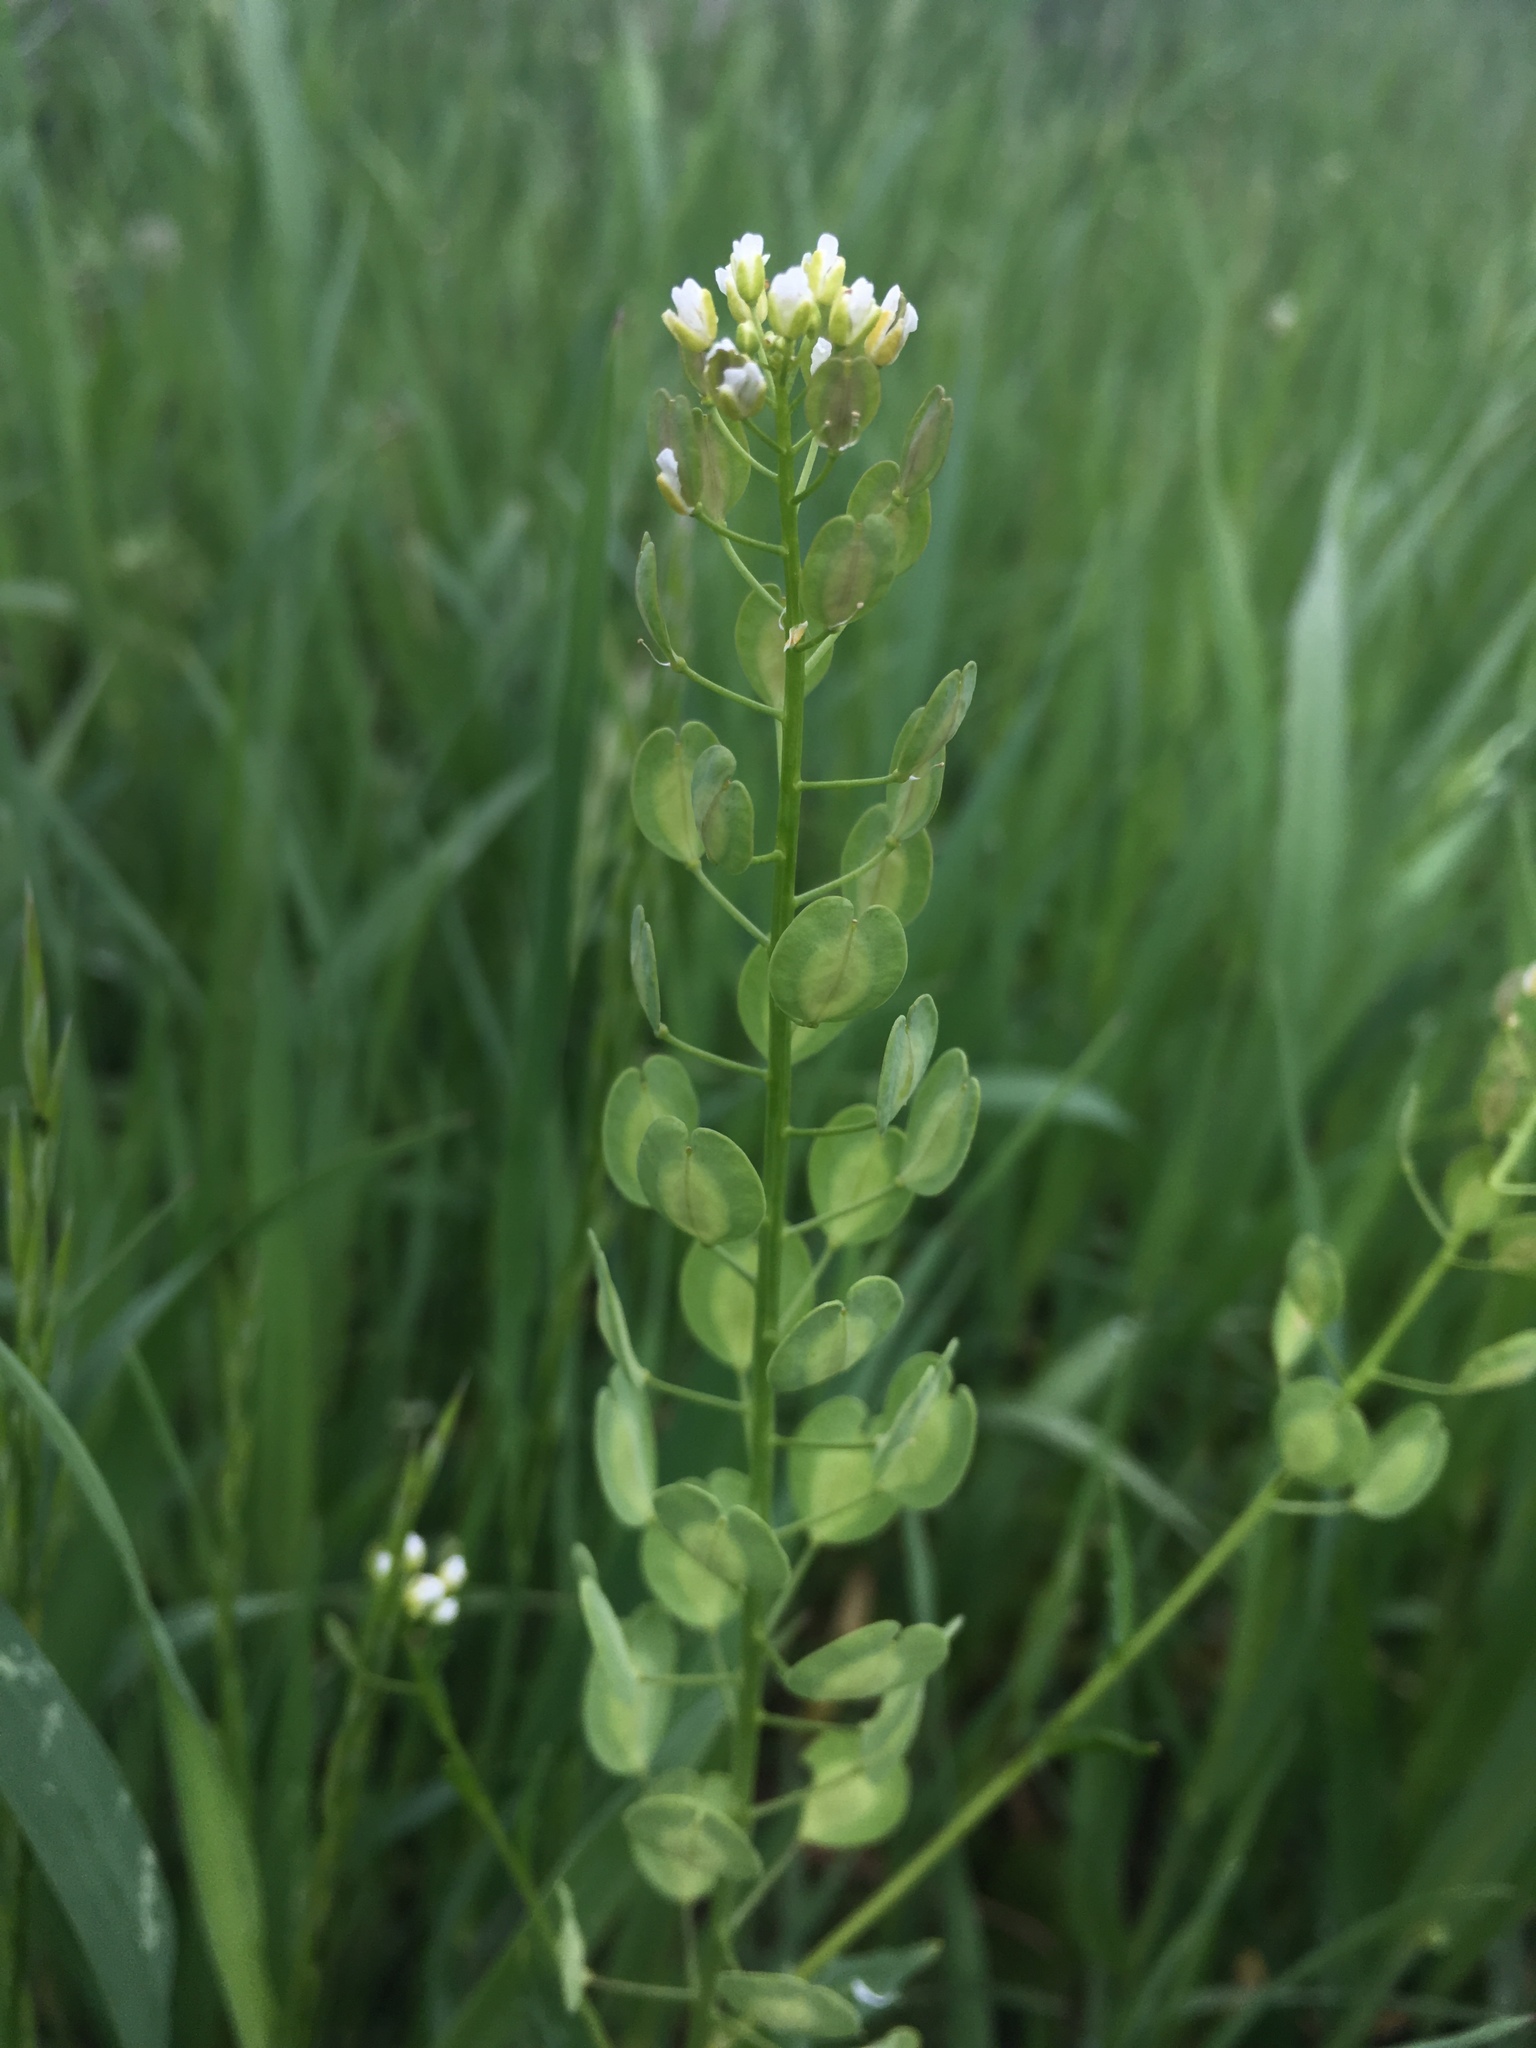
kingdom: Plantae
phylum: Tracheophyta
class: Magnoliopsida
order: Brassicales
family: Brassicaceae
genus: Thlaspi
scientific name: Thlaspi arvense
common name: Field pennycress
